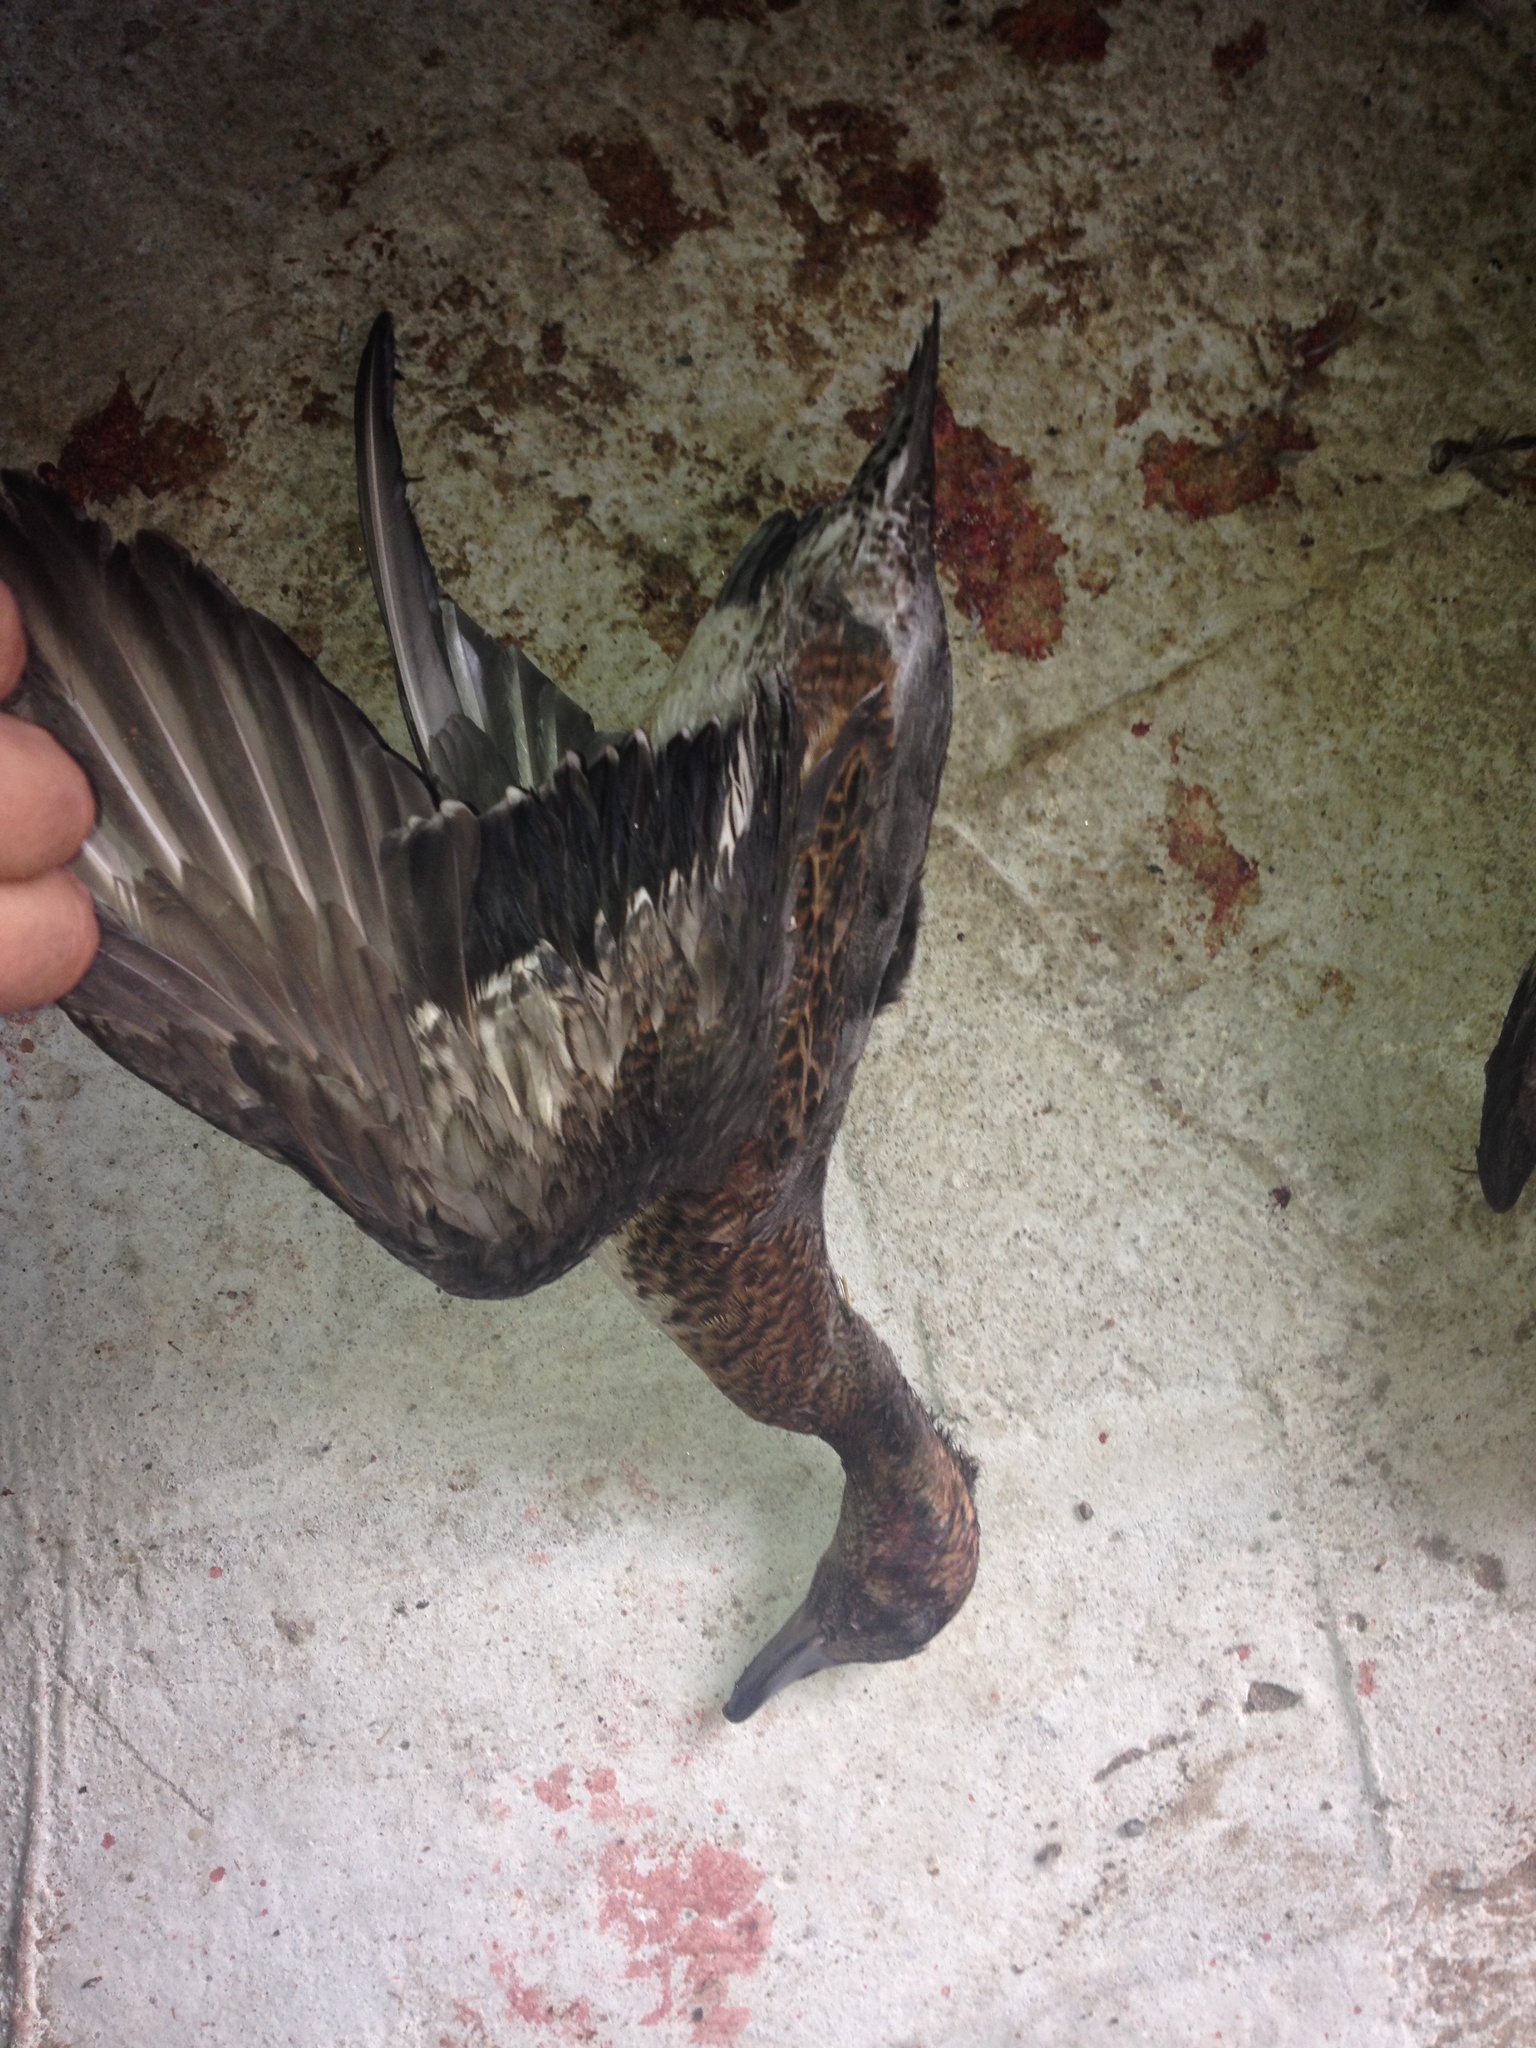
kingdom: Animalia
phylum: Chordata
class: Aves
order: Anseriformes
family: Anatidae
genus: Mareca
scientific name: Mareca penelope
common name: Eurasian wigeon
